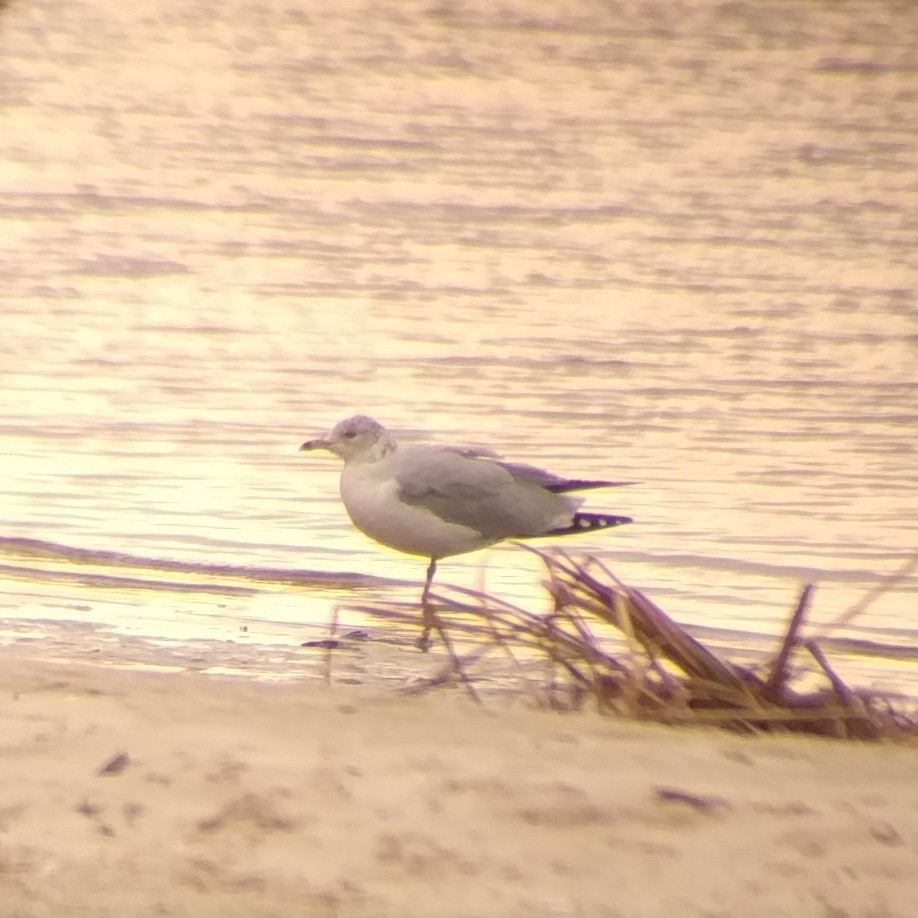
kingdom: Animalia
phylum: Chordata
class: Aves
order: Charadriiformes
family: Laridae
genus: Larus
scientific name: Larus delawarensis
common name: Ring-billed gull
